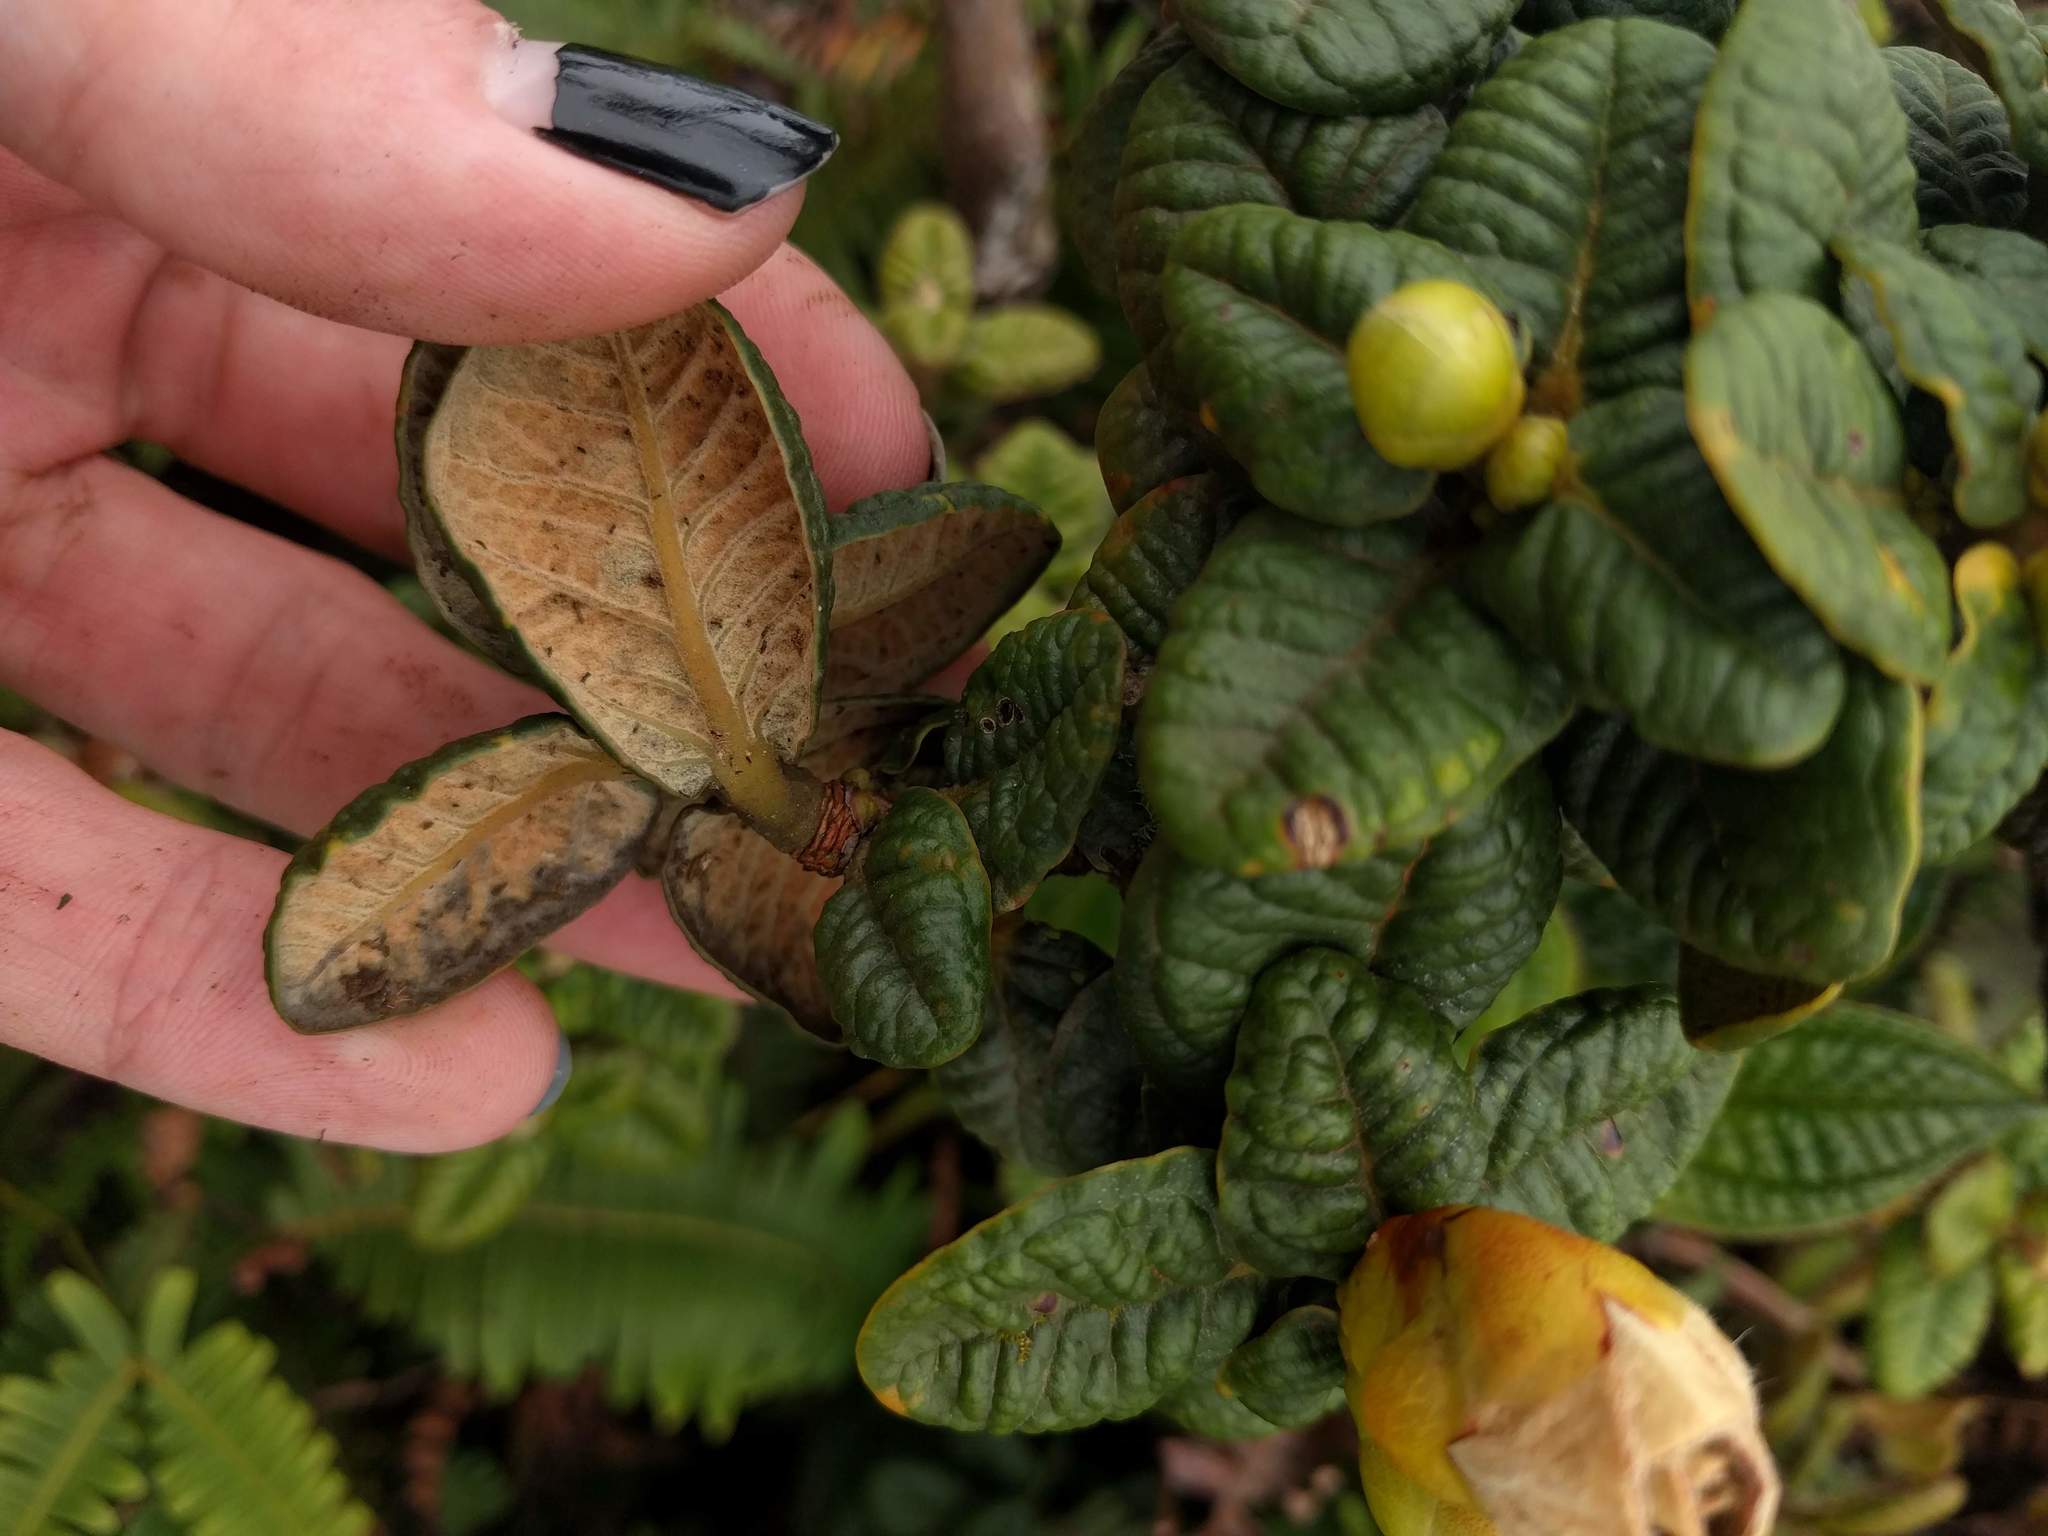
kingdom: Plantae
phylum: Tracheophyta
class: Magnoliopsida
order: Myrtales
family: Myrtaceae
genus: Metrosideros
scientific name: Metrosideros rugosa
